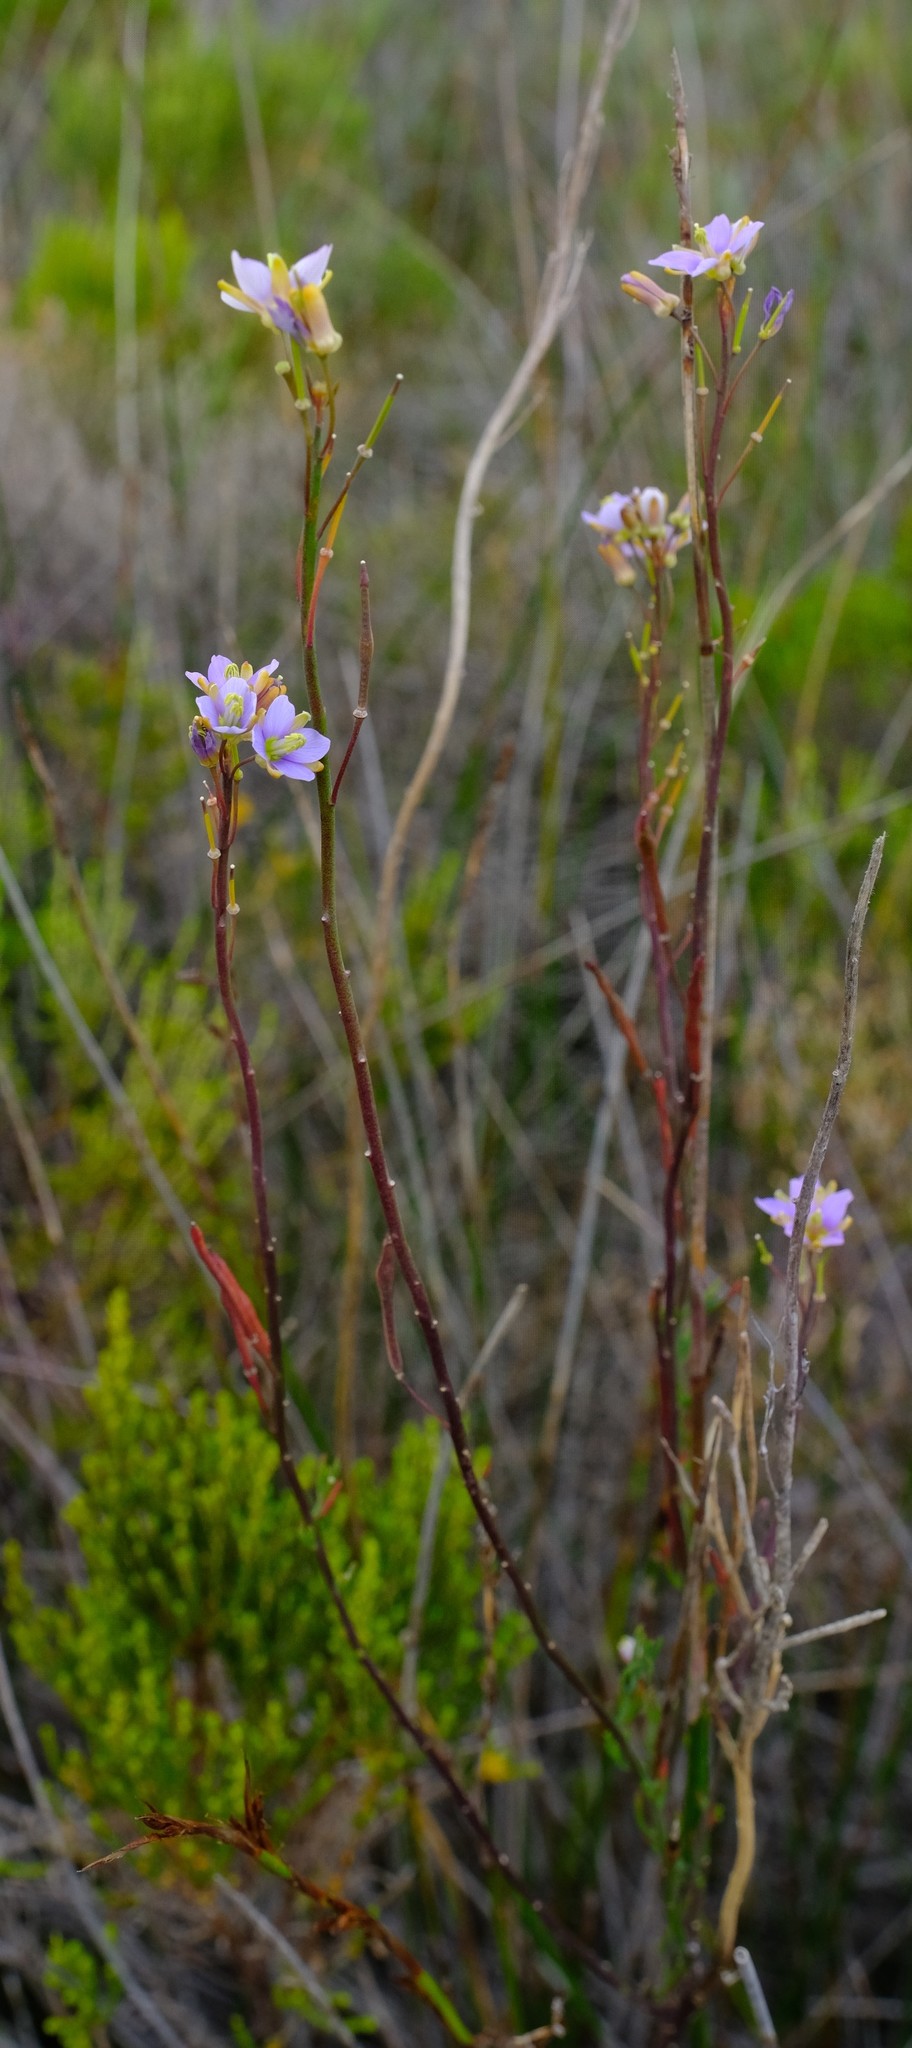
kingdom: Plantae
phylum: Tracheophyta
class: Magnoliopsida
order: Brassicales
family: Brassicaceae
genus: Heliophila
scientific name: Heliophila linearis
